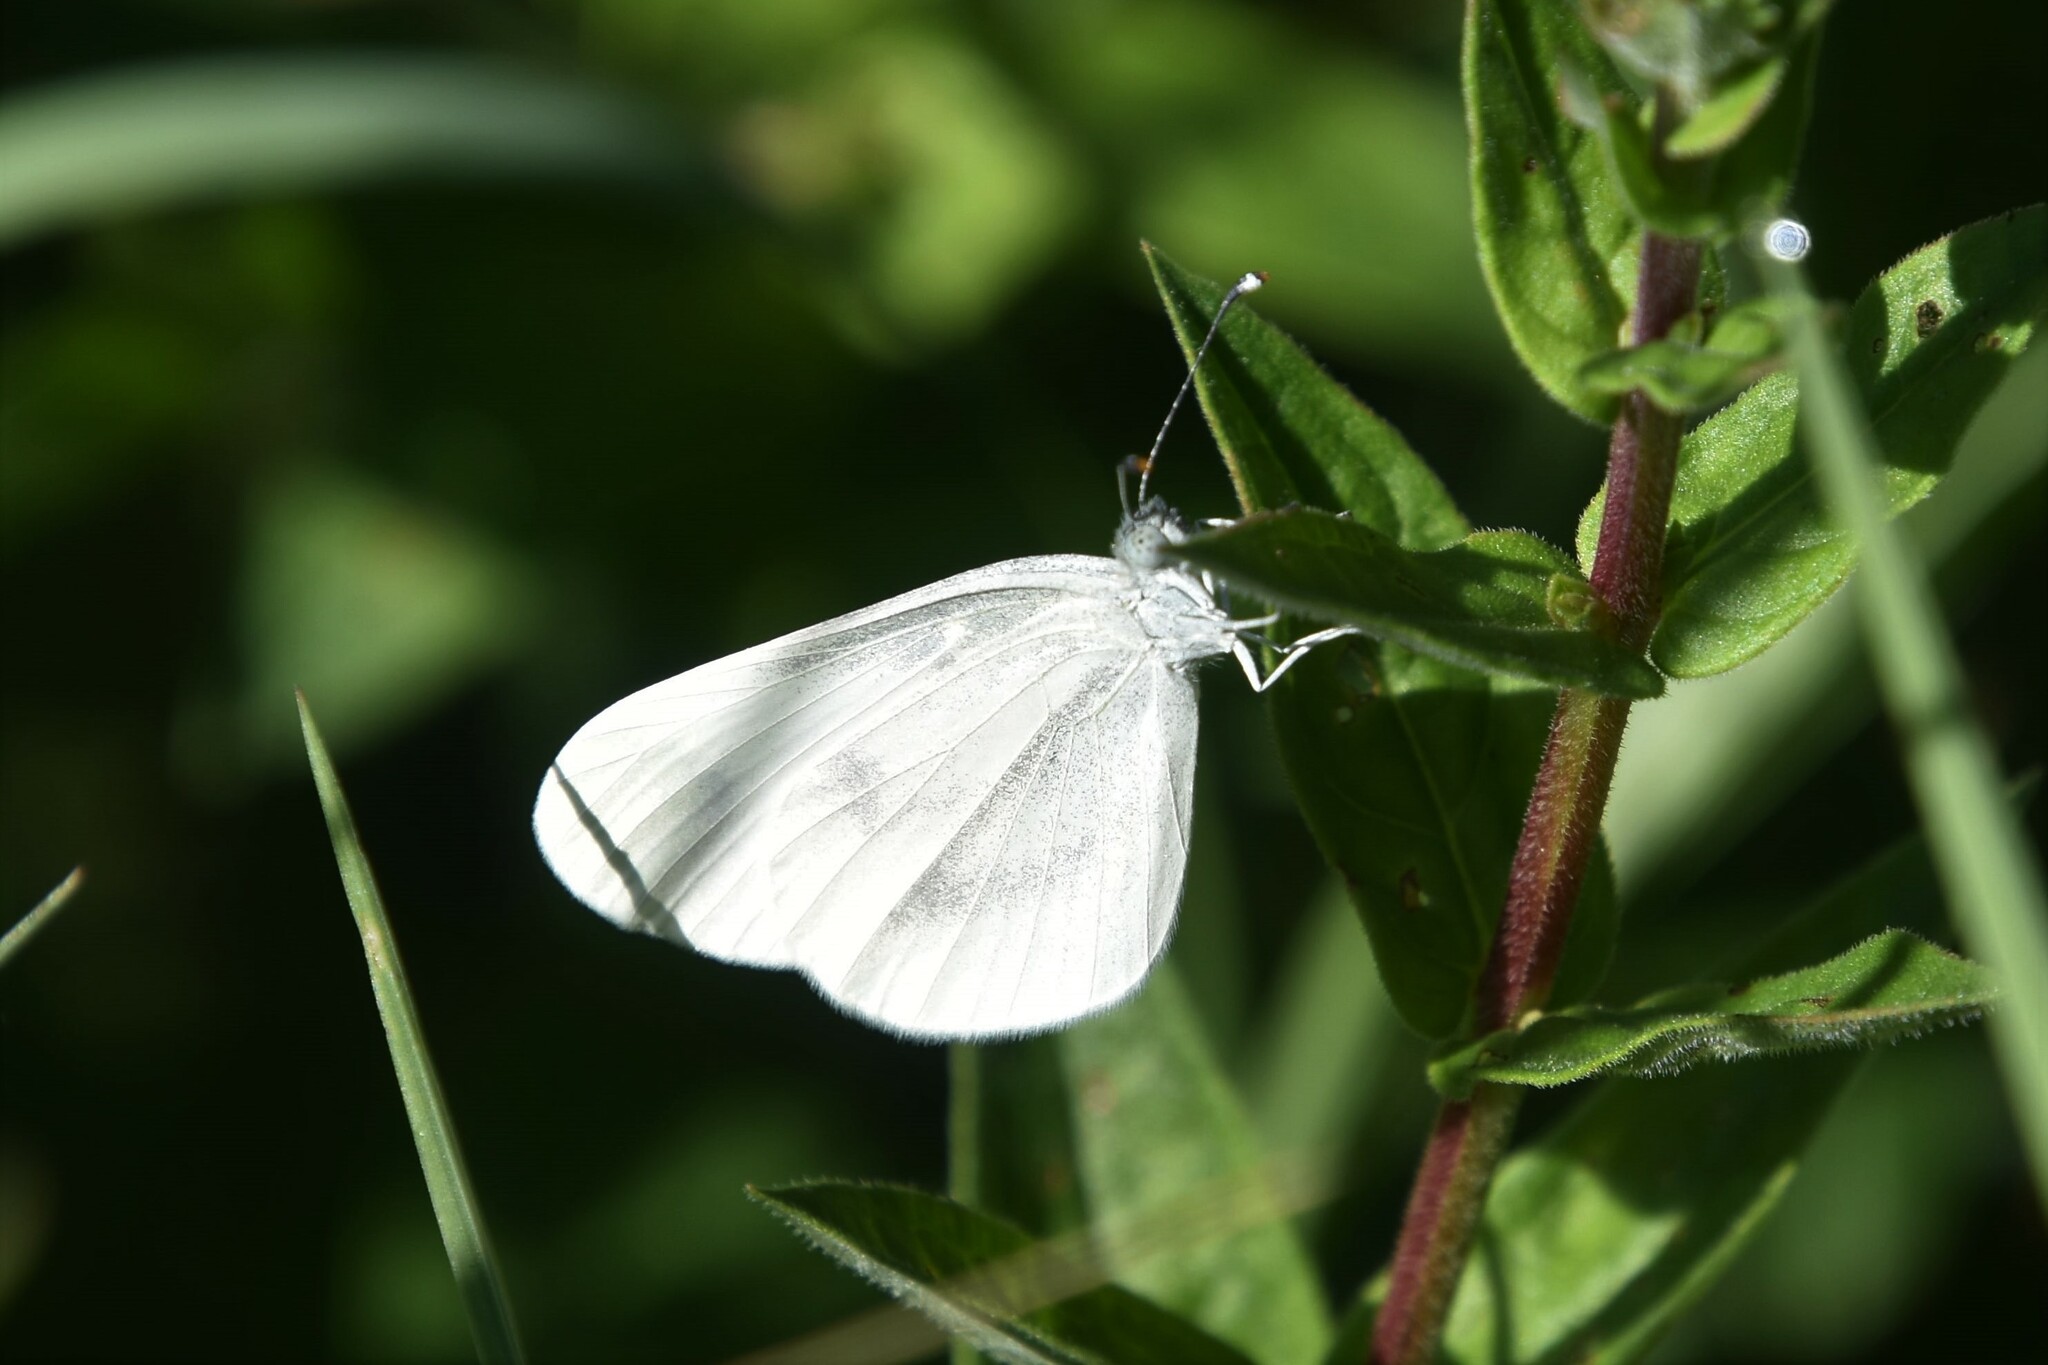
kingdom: Animalia
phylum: Arthropoda
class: Insecta
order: Lepidoptera
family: Pieridae
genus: Leptidea
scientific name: Leptidea sinapis
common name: Wood white
